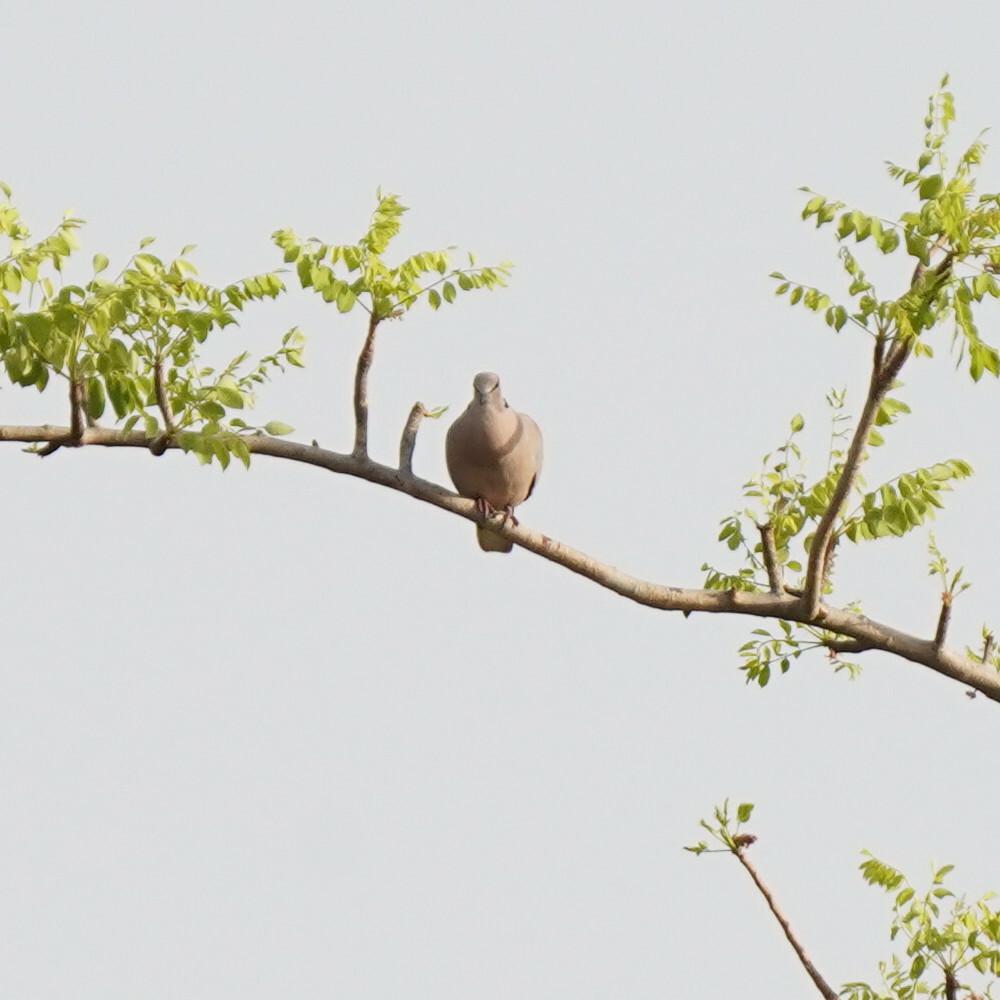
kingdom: Animalia
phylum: Chordata
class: Aves
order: Columbiformes
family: Columbidae
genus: Streptopelia
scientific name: Streptopelia vinacea
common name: Vinaceous dove
